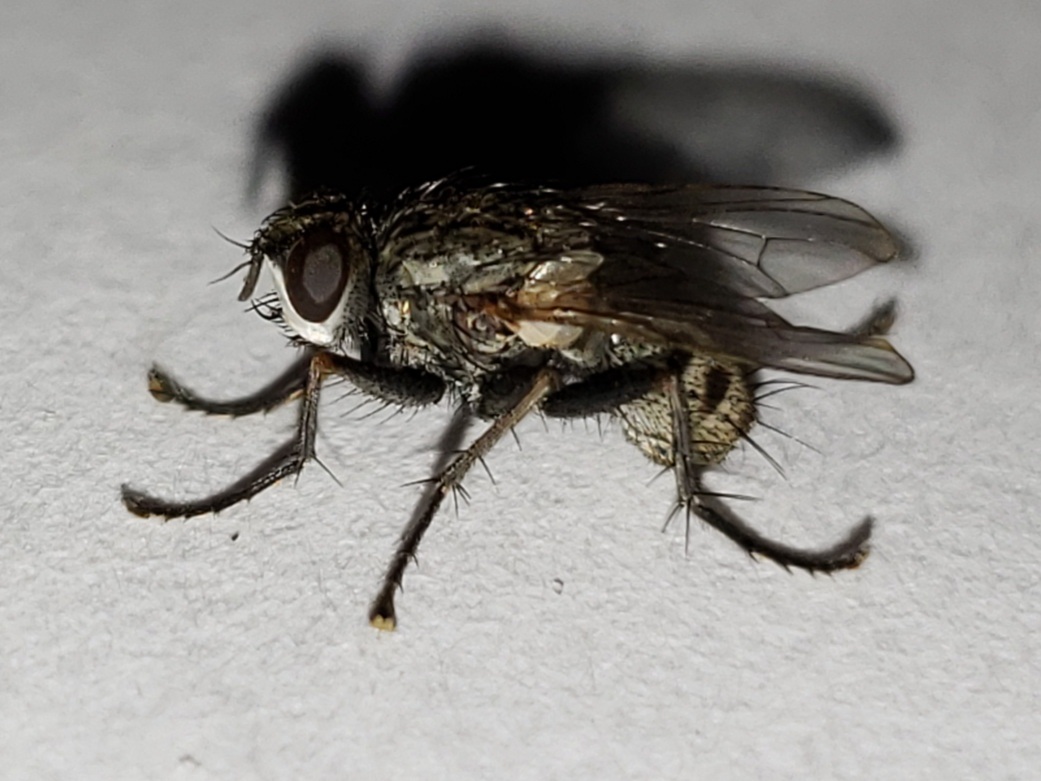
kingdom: Animalia
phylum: Arthropoda
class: Insecta
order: Diptera
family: Muscidae
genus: Pachyceramyia
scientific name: Pachyceramyia robusta
